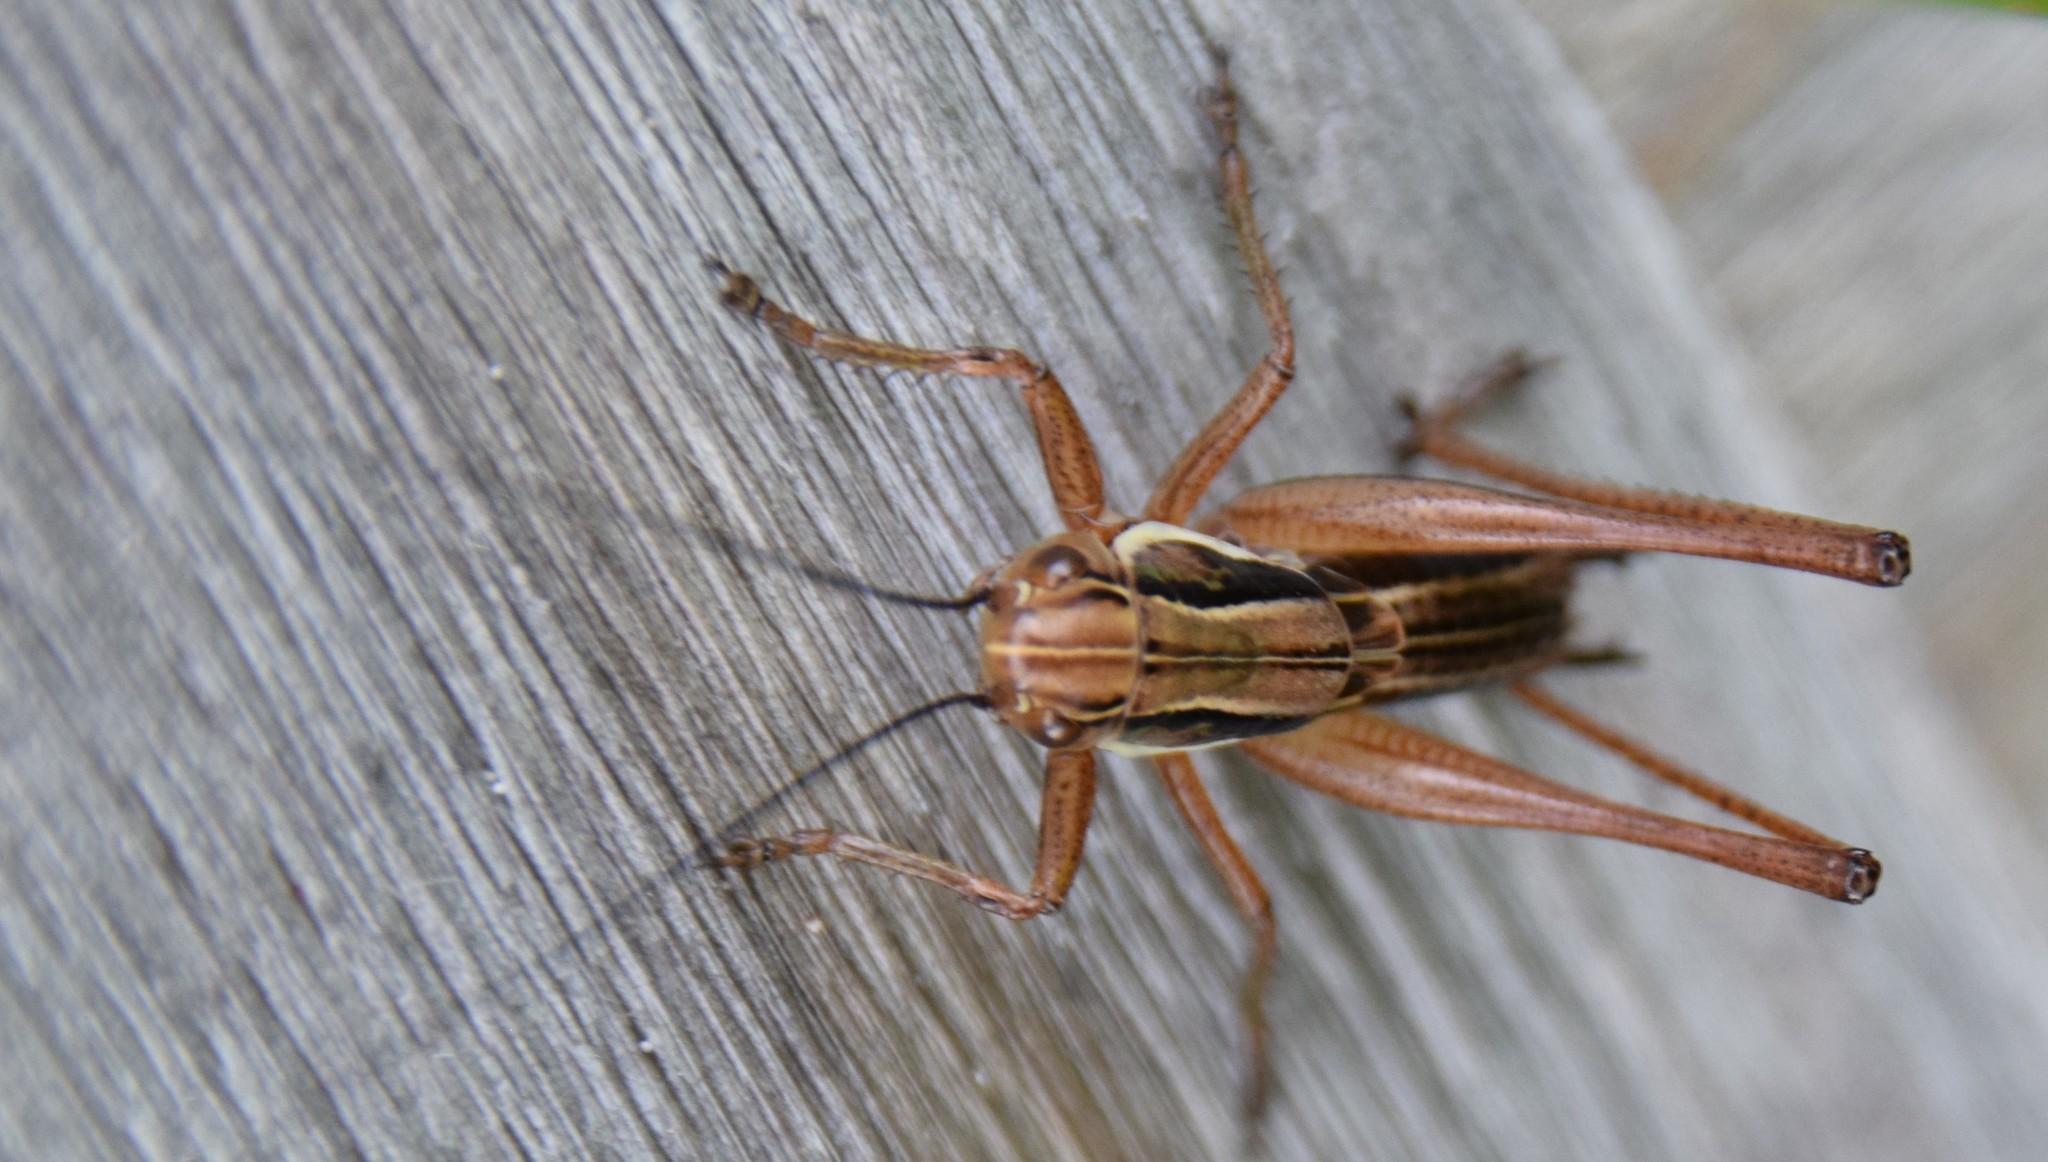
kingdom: Animalia
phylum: Arthropoda
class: Insecta
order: Orthoptera
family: Tettigoniidae
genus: Roeseliana
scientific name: Roeseliana roeselii
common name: Roesel's bush cricket
